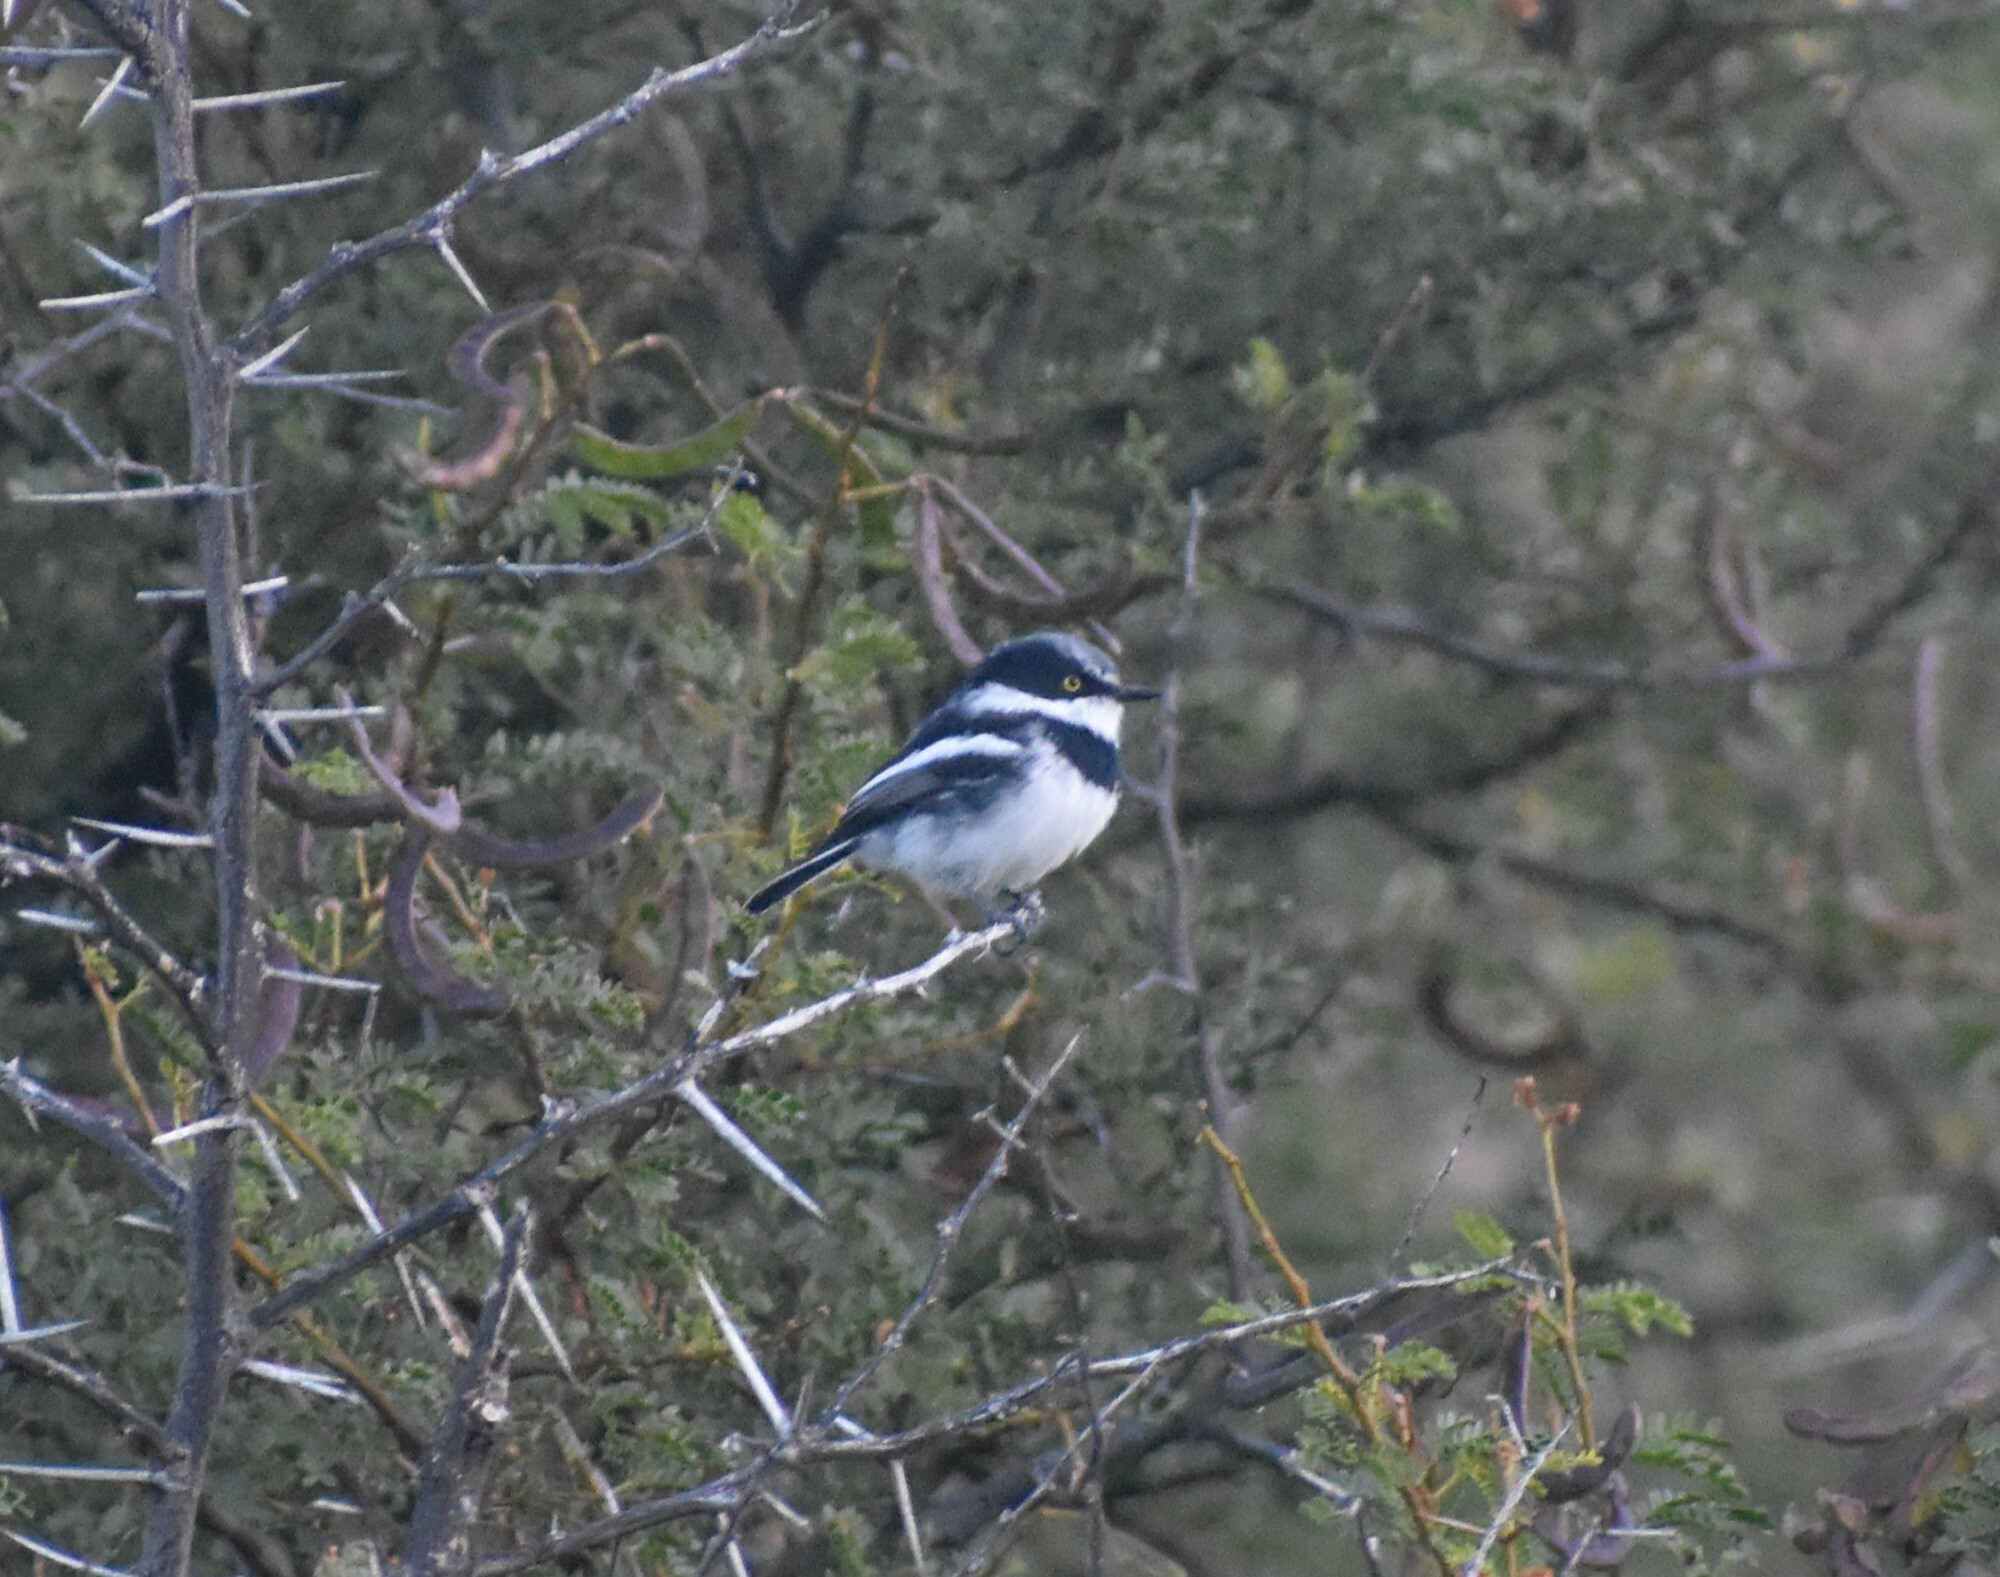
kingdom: Animalia
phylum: Chordata
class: Aves
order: Passeriformes
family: Platysteiridae
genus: Batis
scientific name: Batis pririt
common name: Pririt batis
